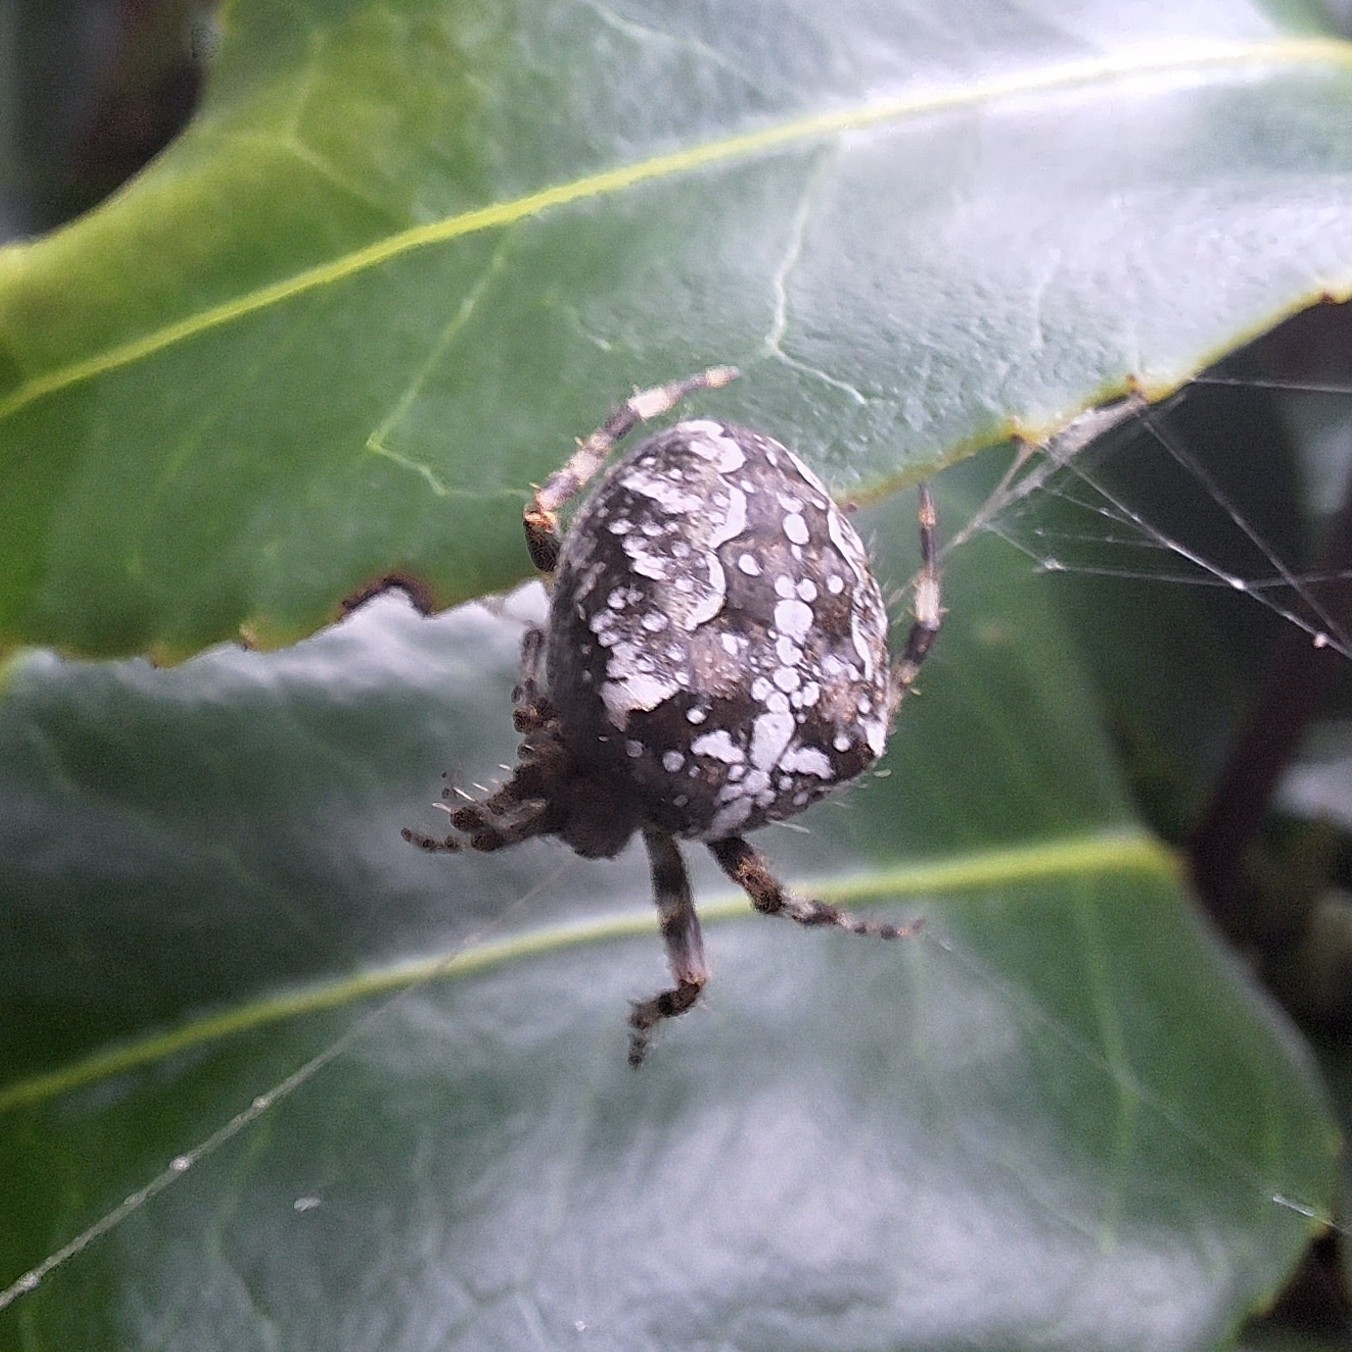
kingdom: Animalia
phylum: Arthropoda
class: Arachnida
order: Araneae
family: Araneidae
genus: Araneus
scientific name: Araneus diadematus
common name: Cross orbweaver
